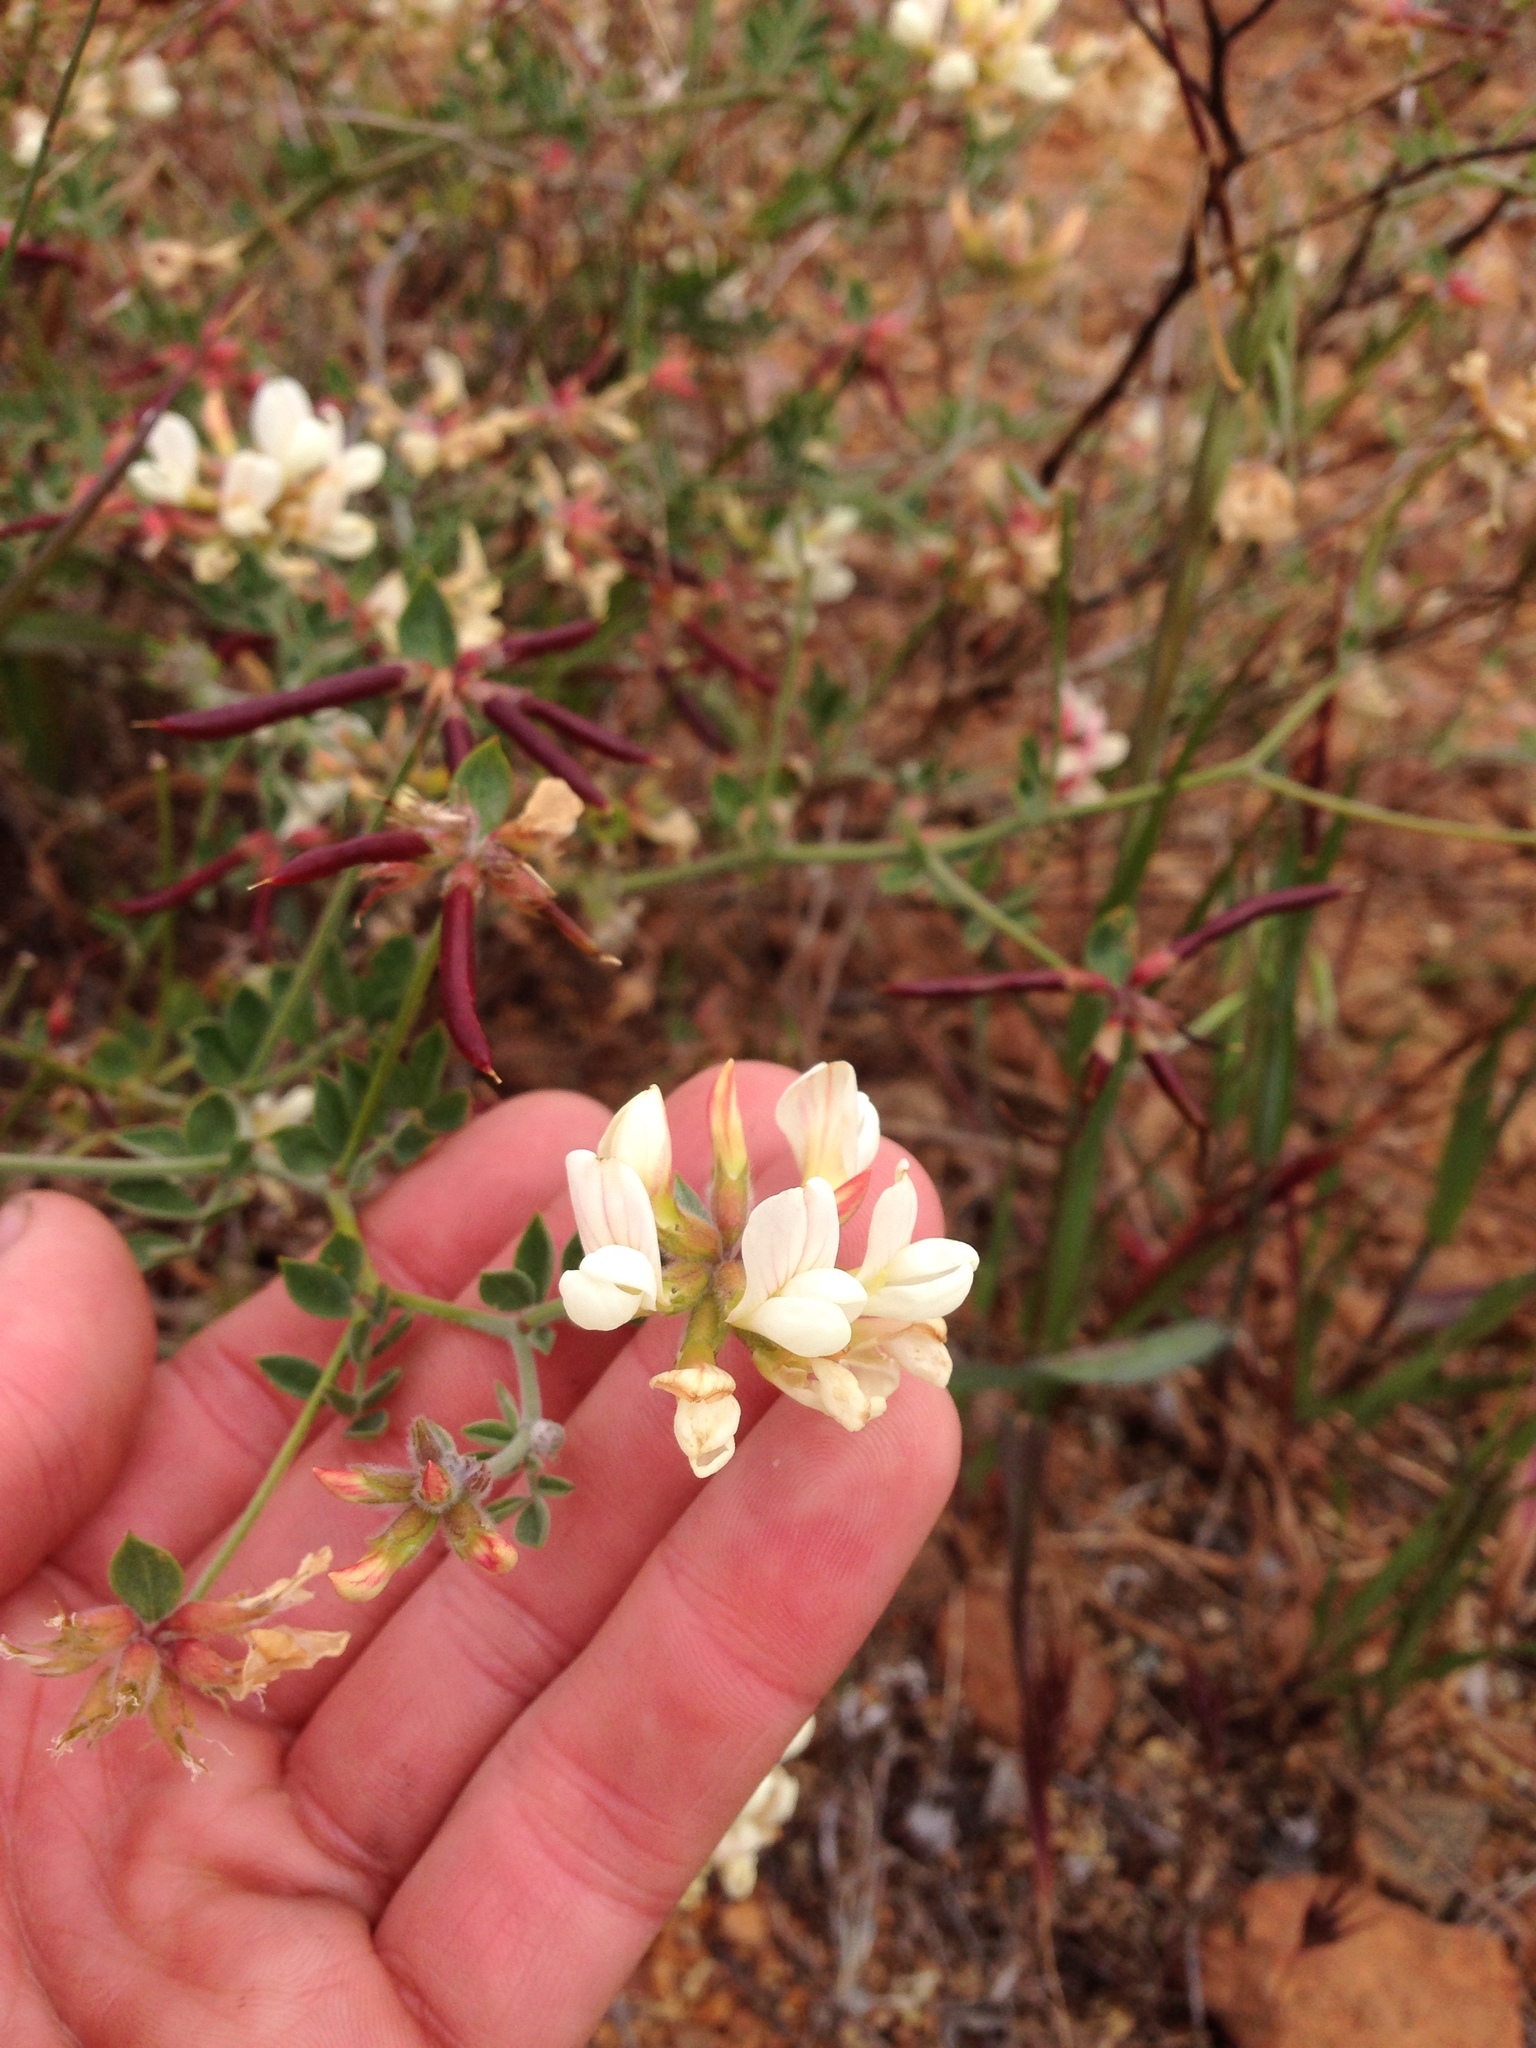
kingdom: Plantae
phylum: Tracheophyta
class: Magnoliopsida
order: Fabales
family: Fabaceae
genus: Acmispon
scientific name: Acmispon grandiflorus
